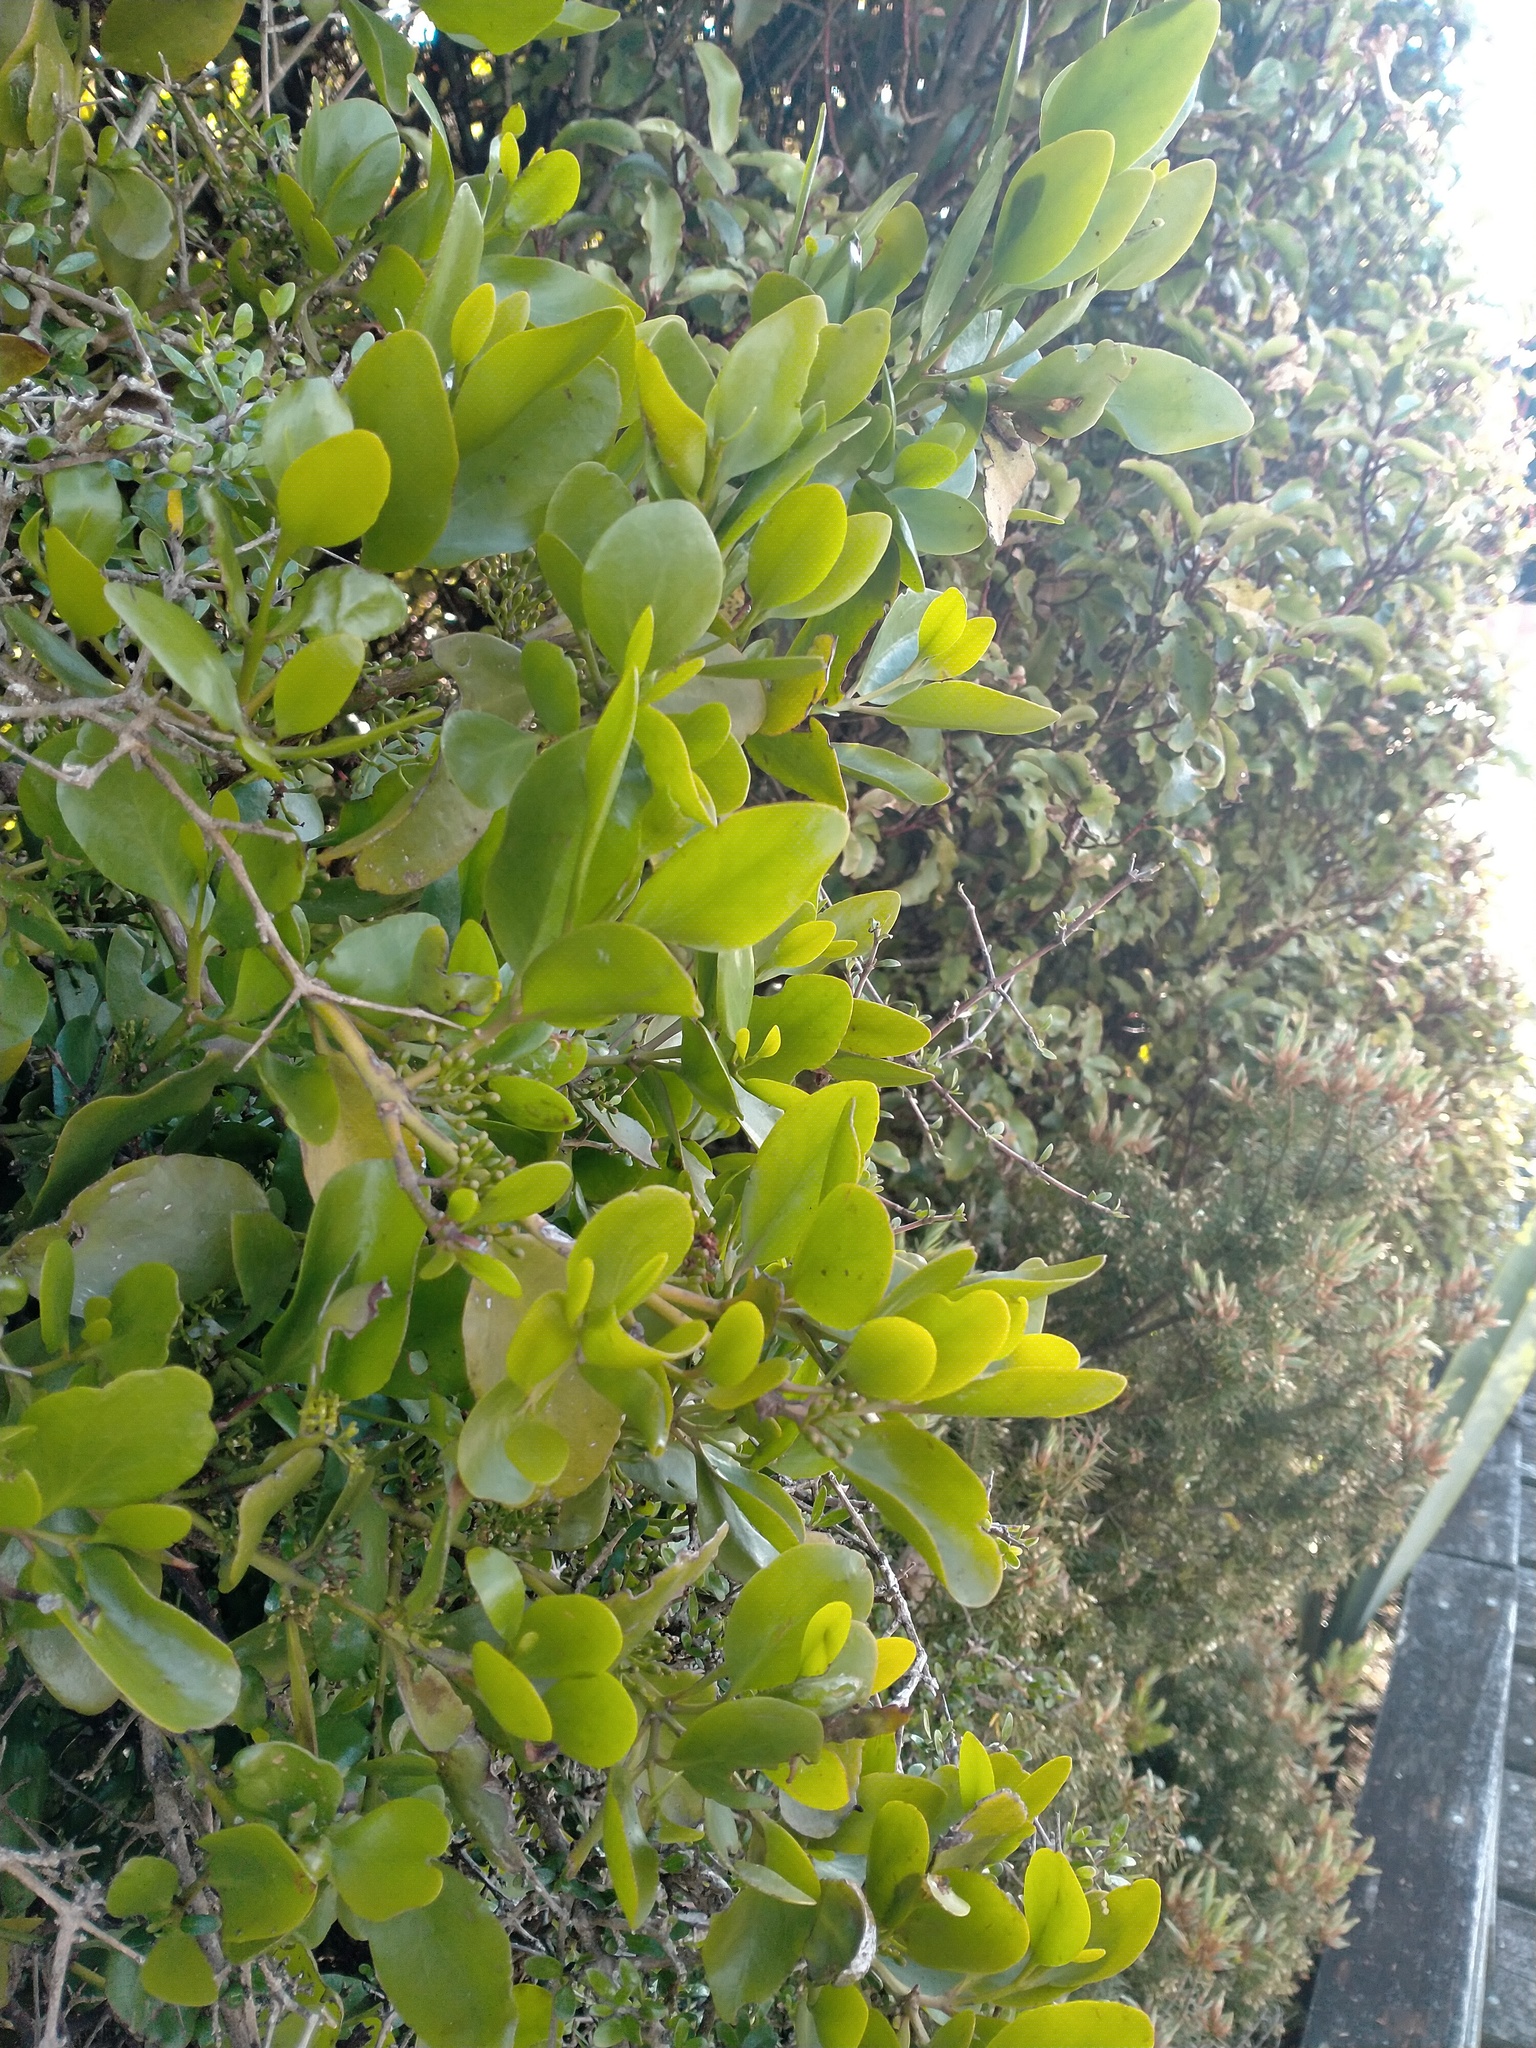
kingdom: Plantae
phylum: Tracheophyta
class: Magnoliopsida
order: Santalales
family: Loranthaceae
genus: Ileostylus
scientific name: Ileostylus micranthus
